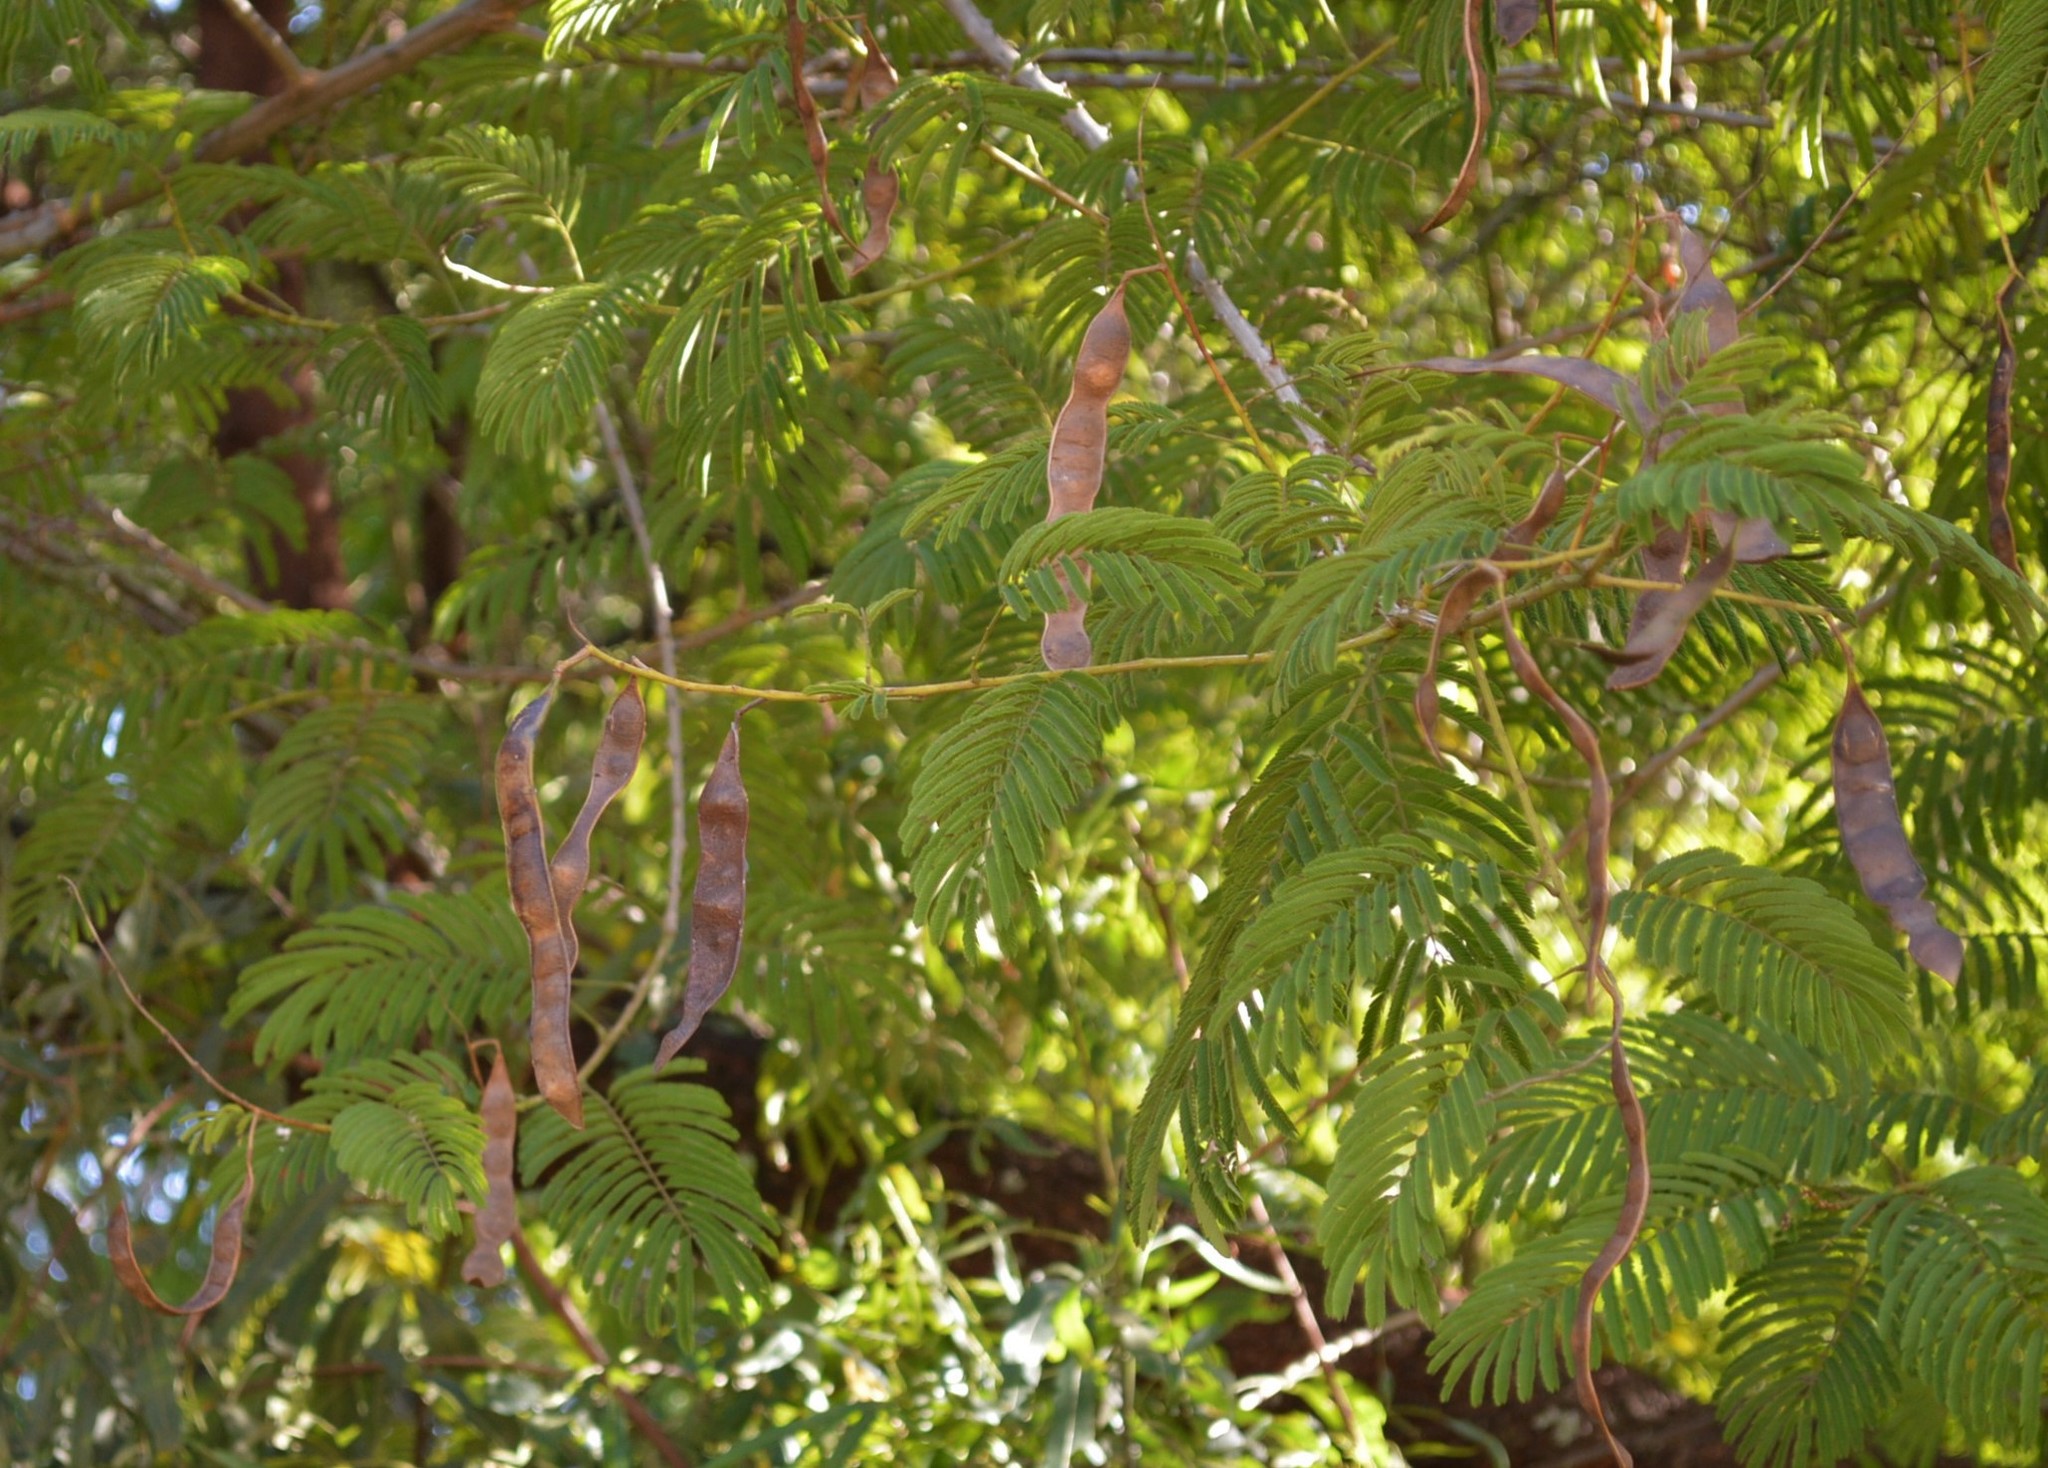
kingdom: Plantae
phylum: Tracheophyta
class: Magnoliopsida
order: Fabales
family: Fabaceae
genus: Senegalia
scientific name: Senegalia ataxacantha
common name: Flame acacia
